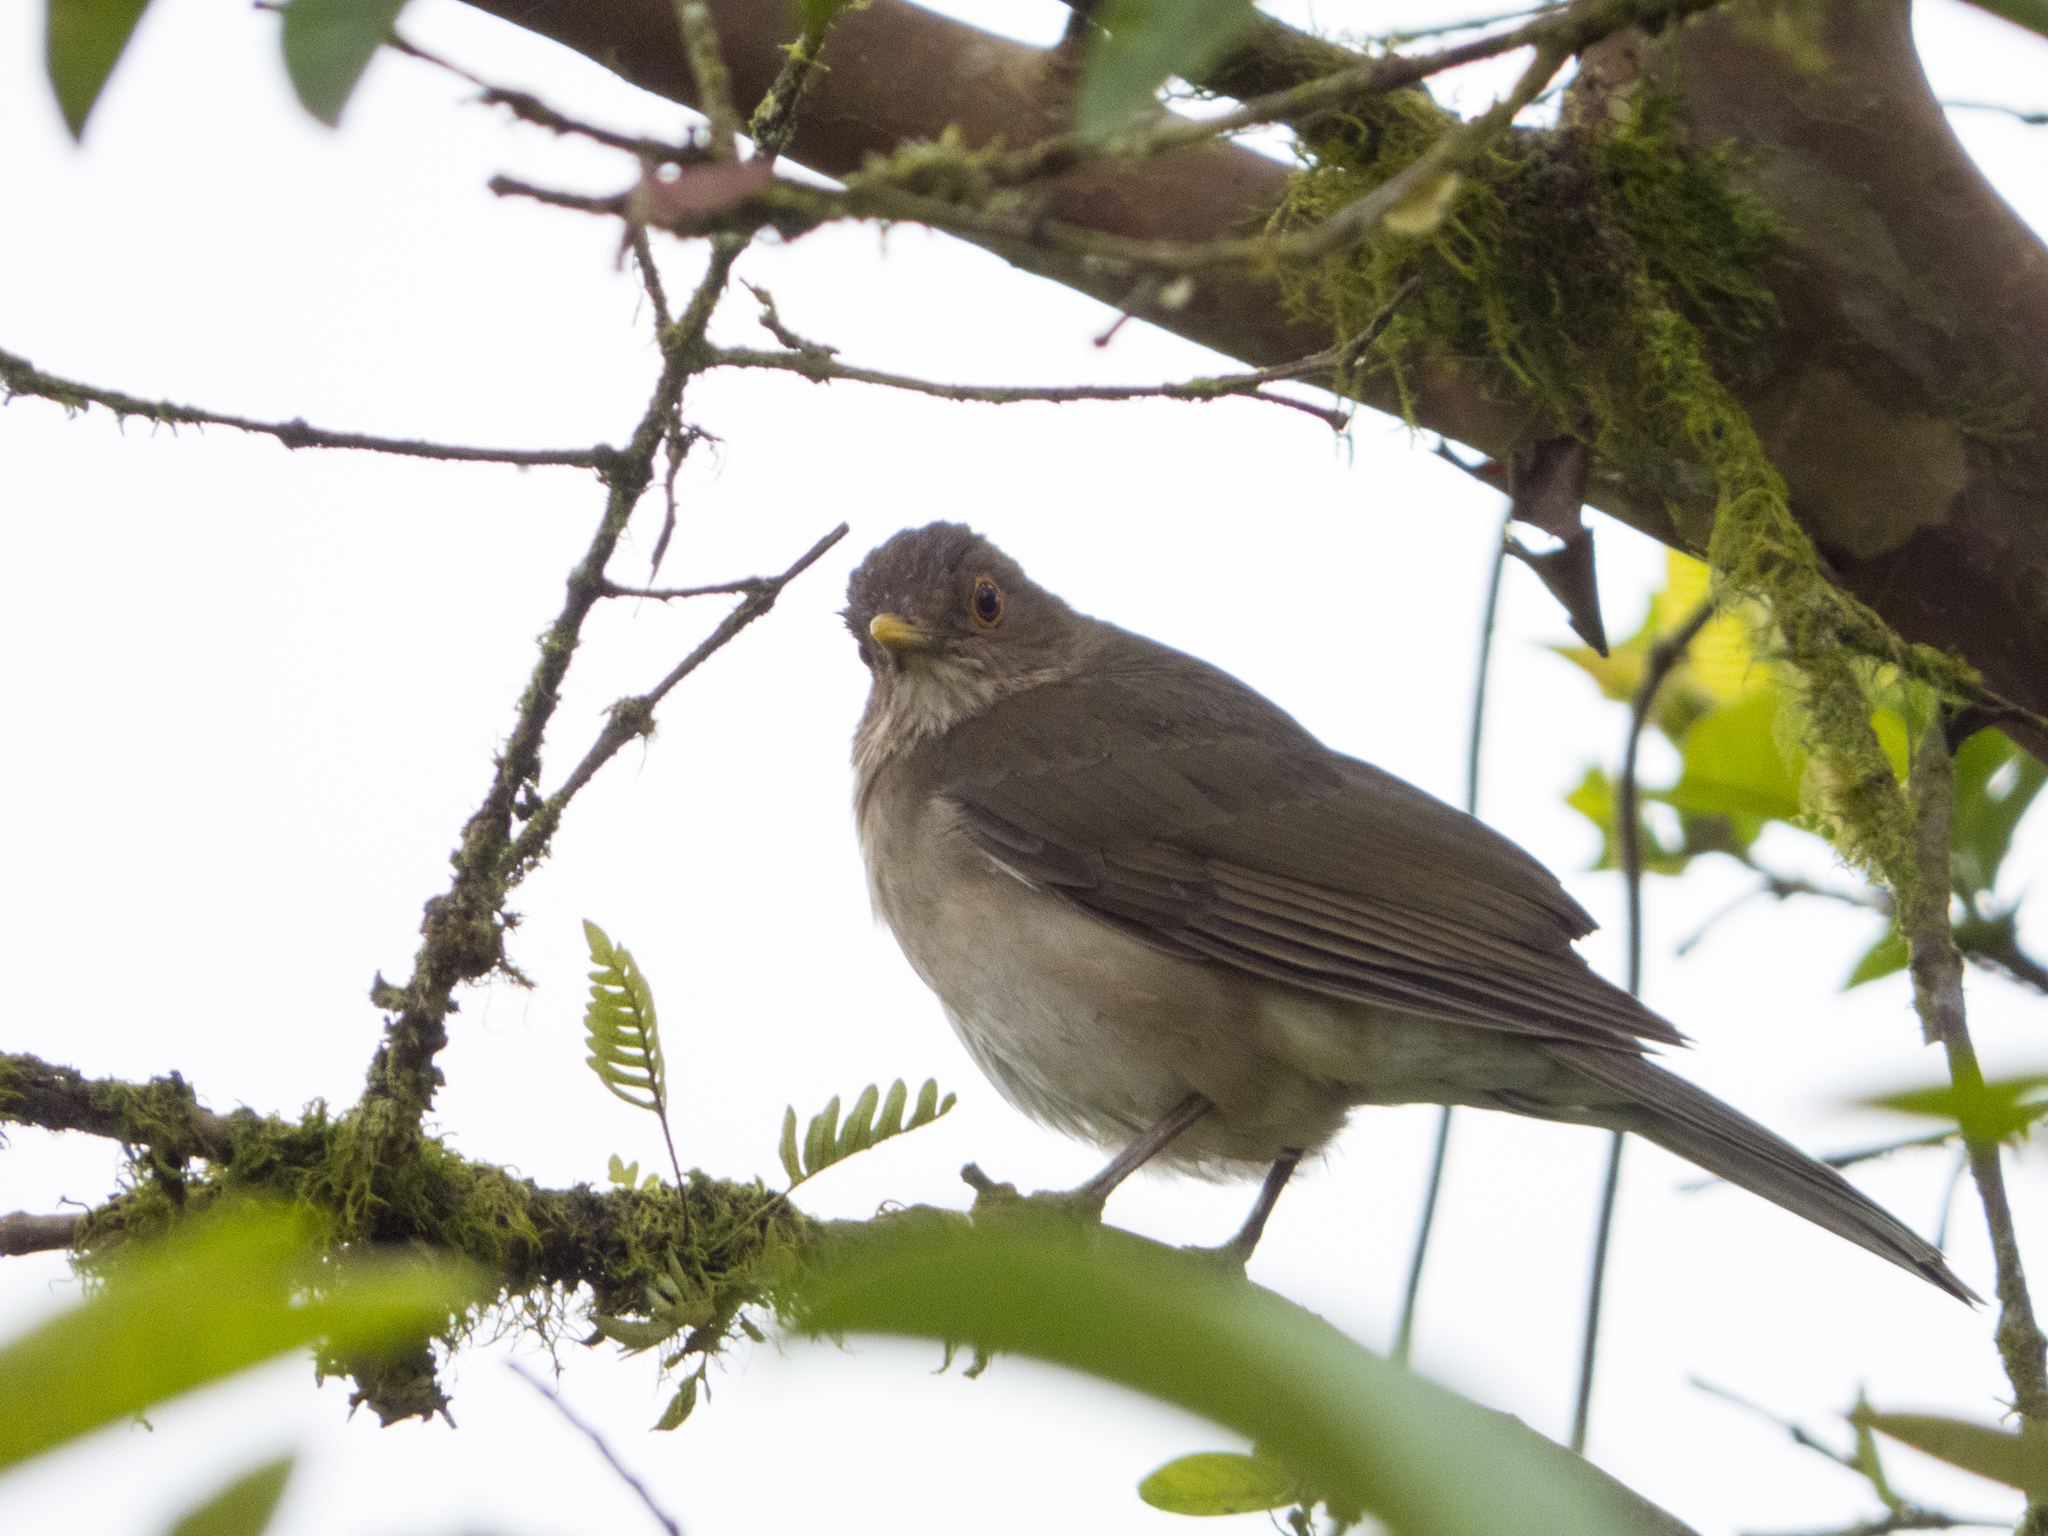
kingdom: Animalia
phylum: Chordata
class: Aves
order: Passeriformes
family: Turdidae
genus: Turdus
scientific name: Turdus maculirostris
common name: Ecuadorian thrush
